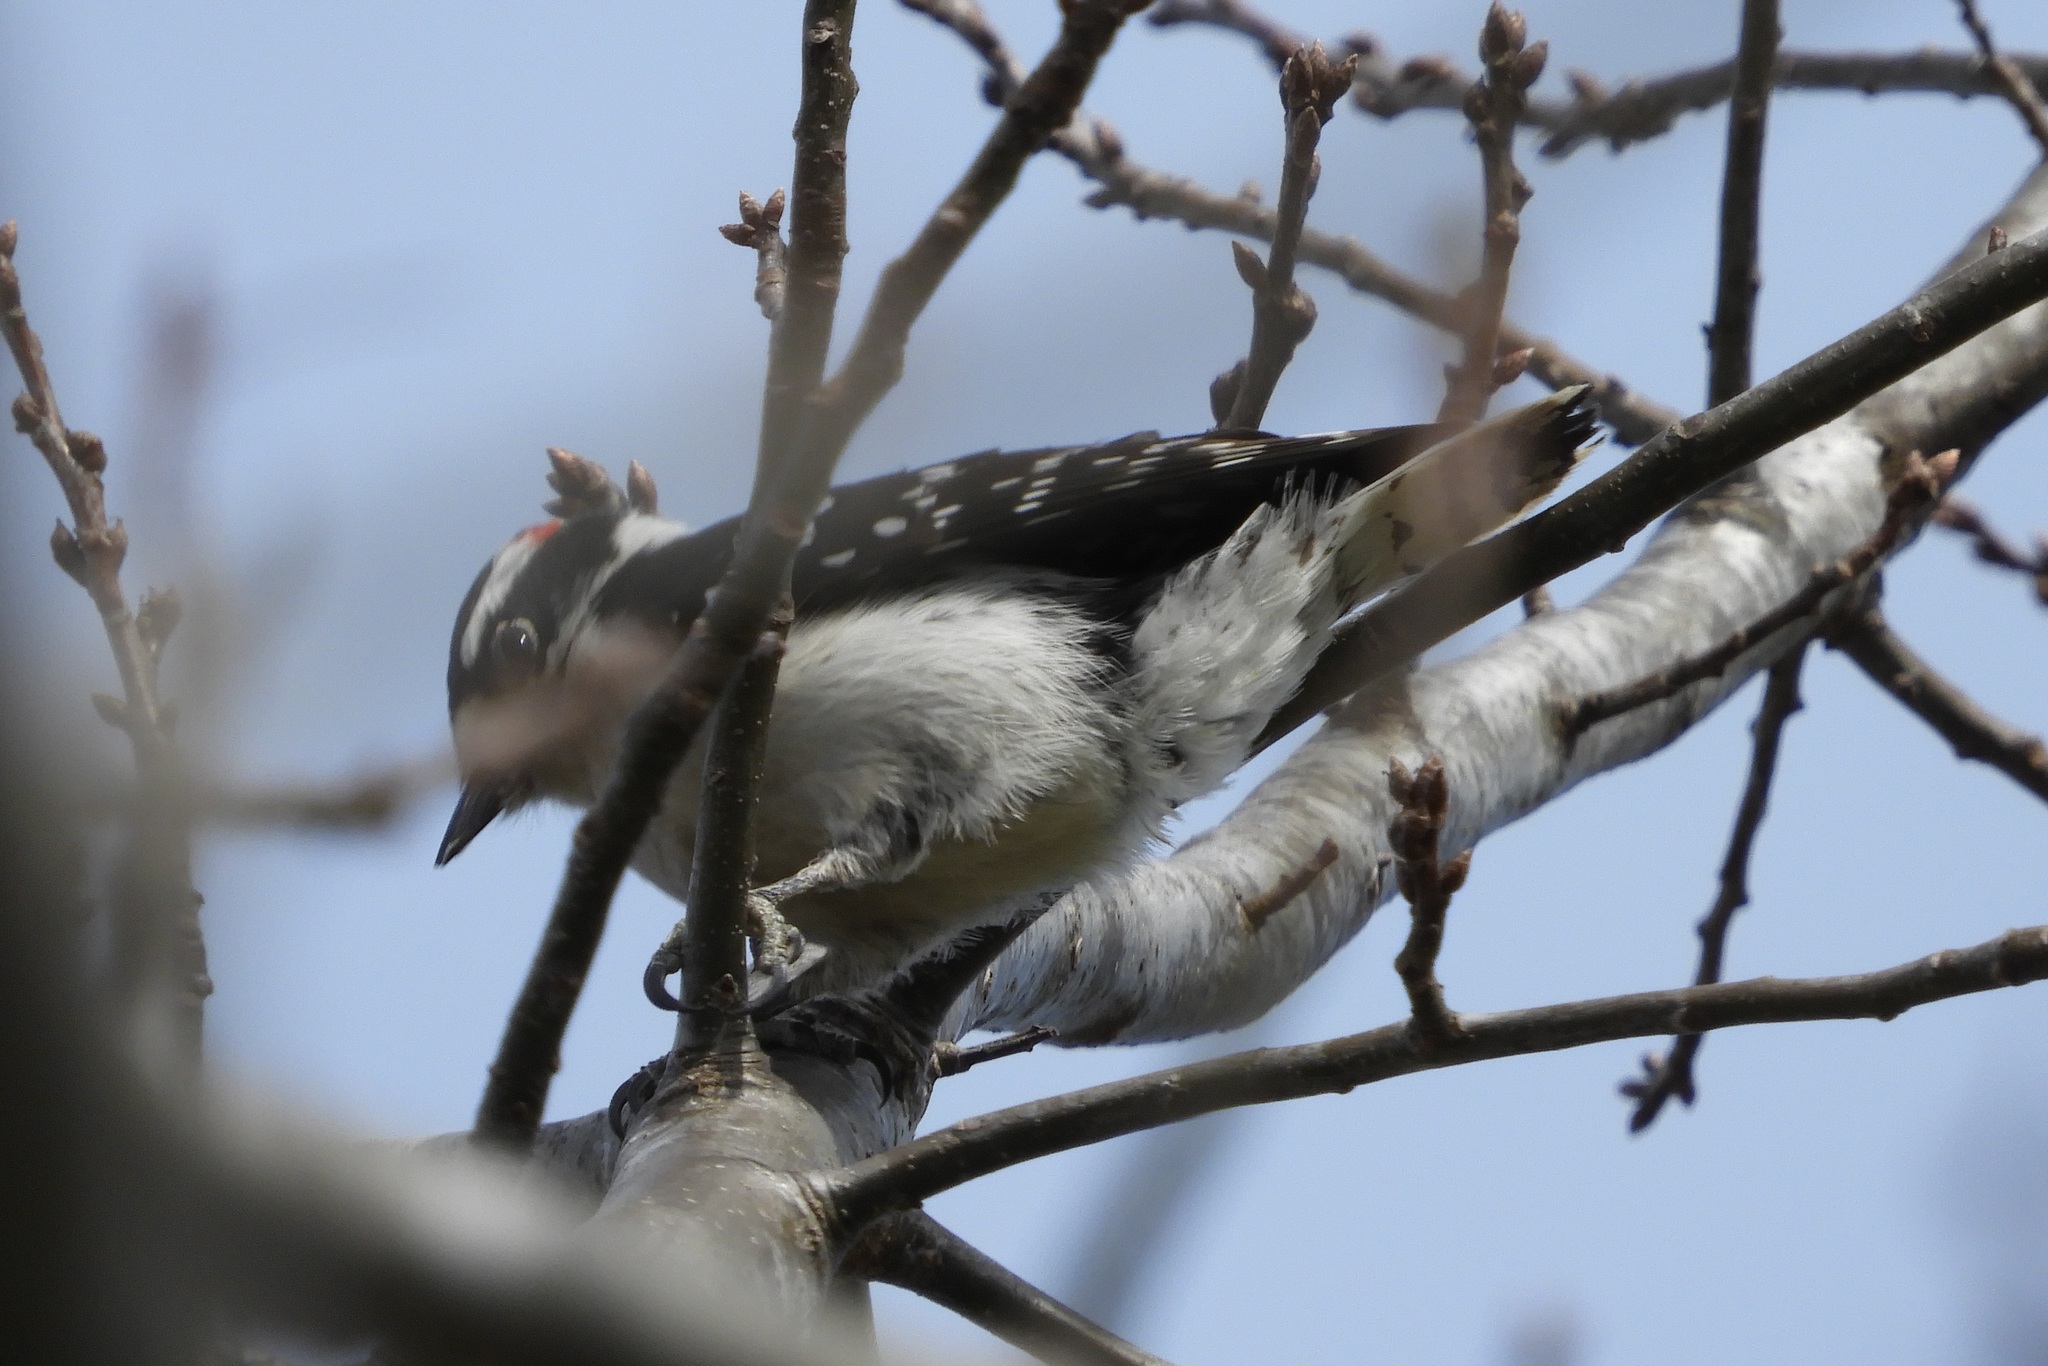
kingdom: Animalia
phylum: Chordata
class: Aves
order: Piciformes
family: Picidae
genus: Dryobates
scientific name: Dryobates pubescens
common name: Downy woodpecker
